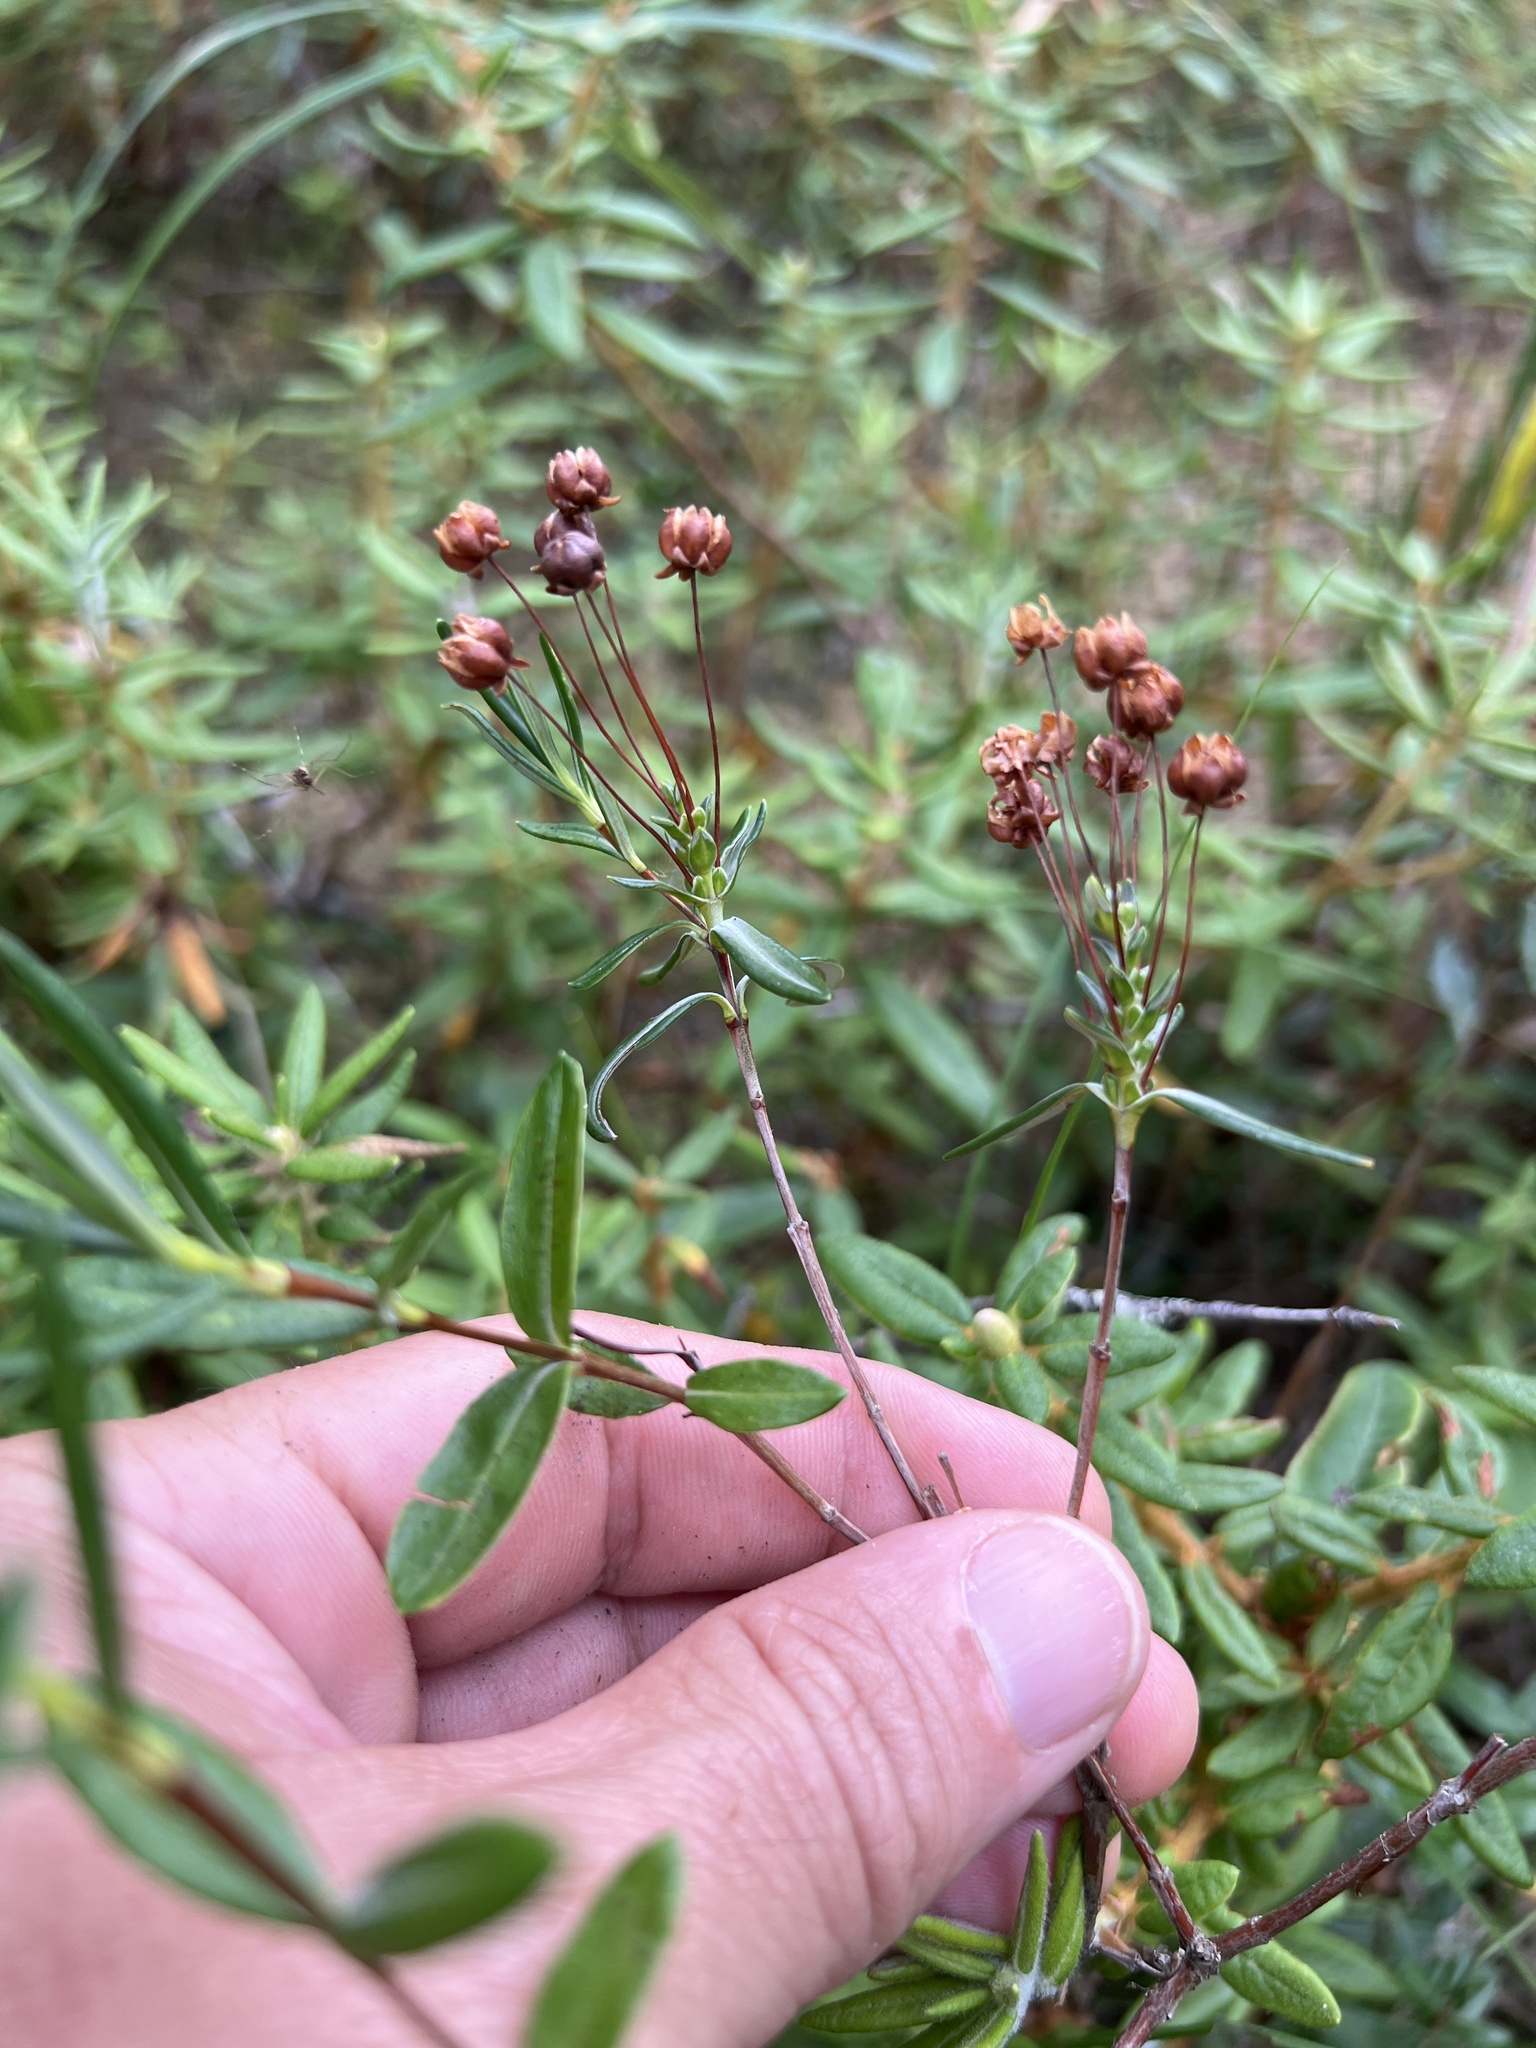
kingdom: Plantae
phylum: Tracheophyta
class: Magnoliopsida
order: Ericales
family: Ericaceae
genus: Kalmia
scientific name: Kalmia polifolia
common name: Bog-laurel
